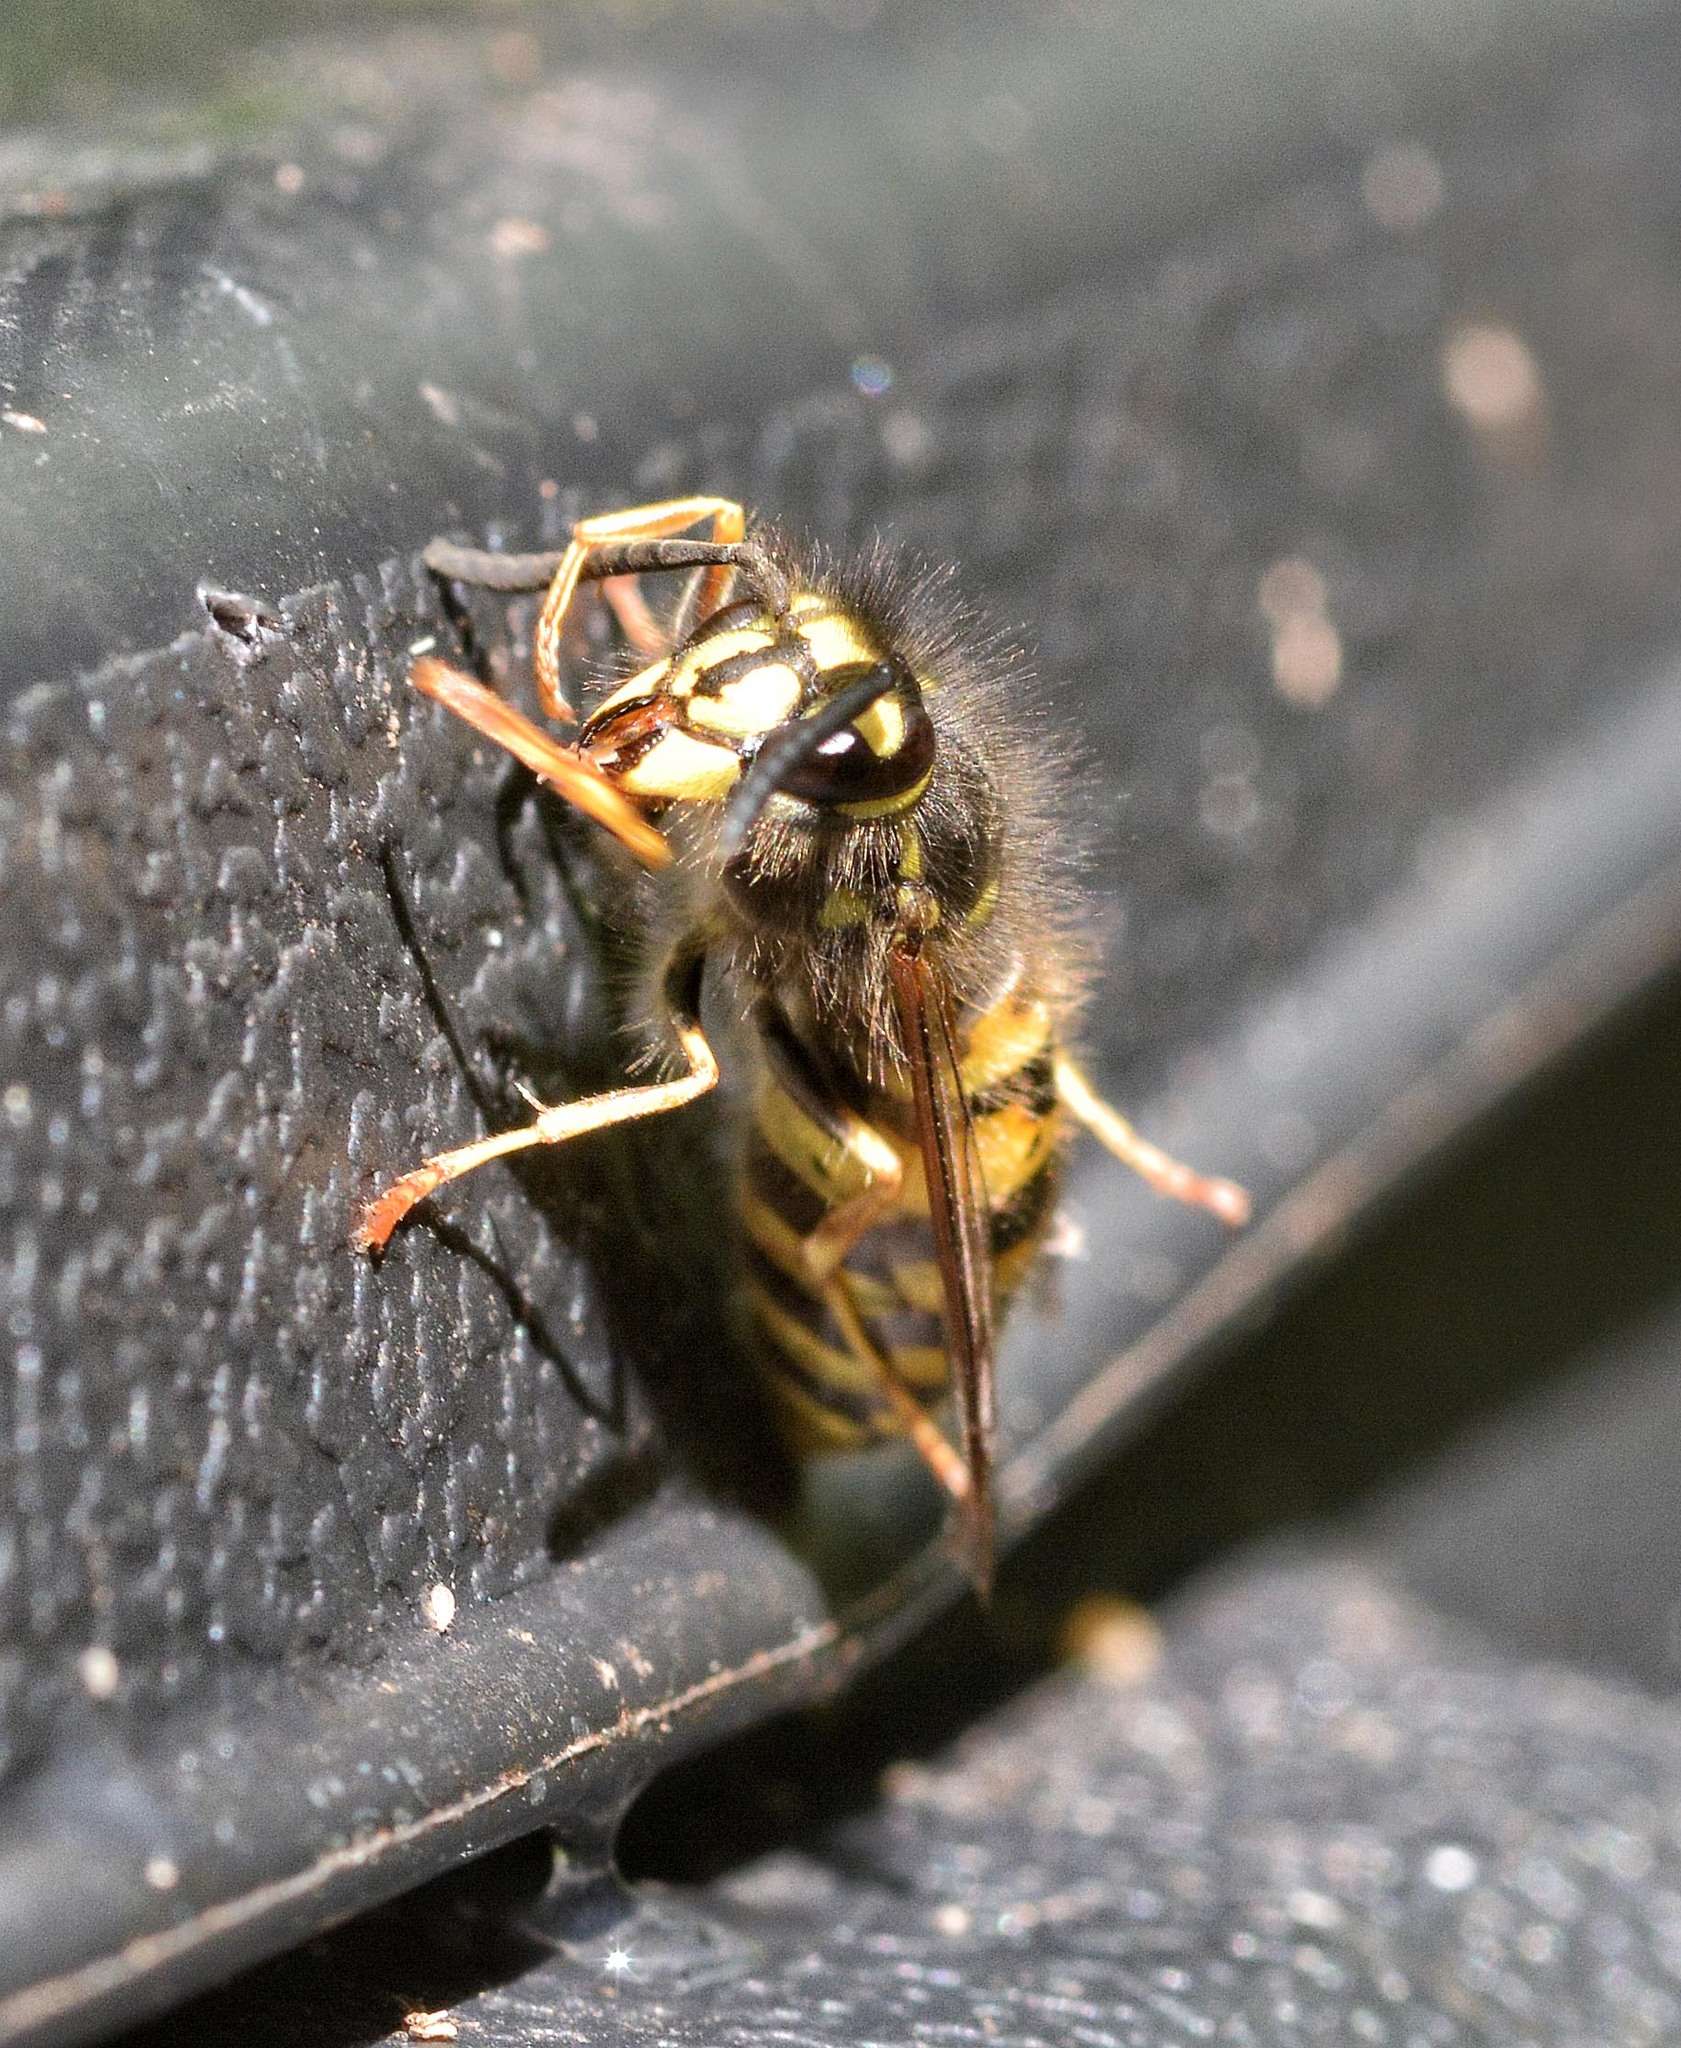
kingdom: Animalia
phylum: Arthropoda
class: Insecta
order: Hymenoptera
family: Vespidae
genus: Vespula
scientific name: Vespula vulgaris
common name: Common wasp
